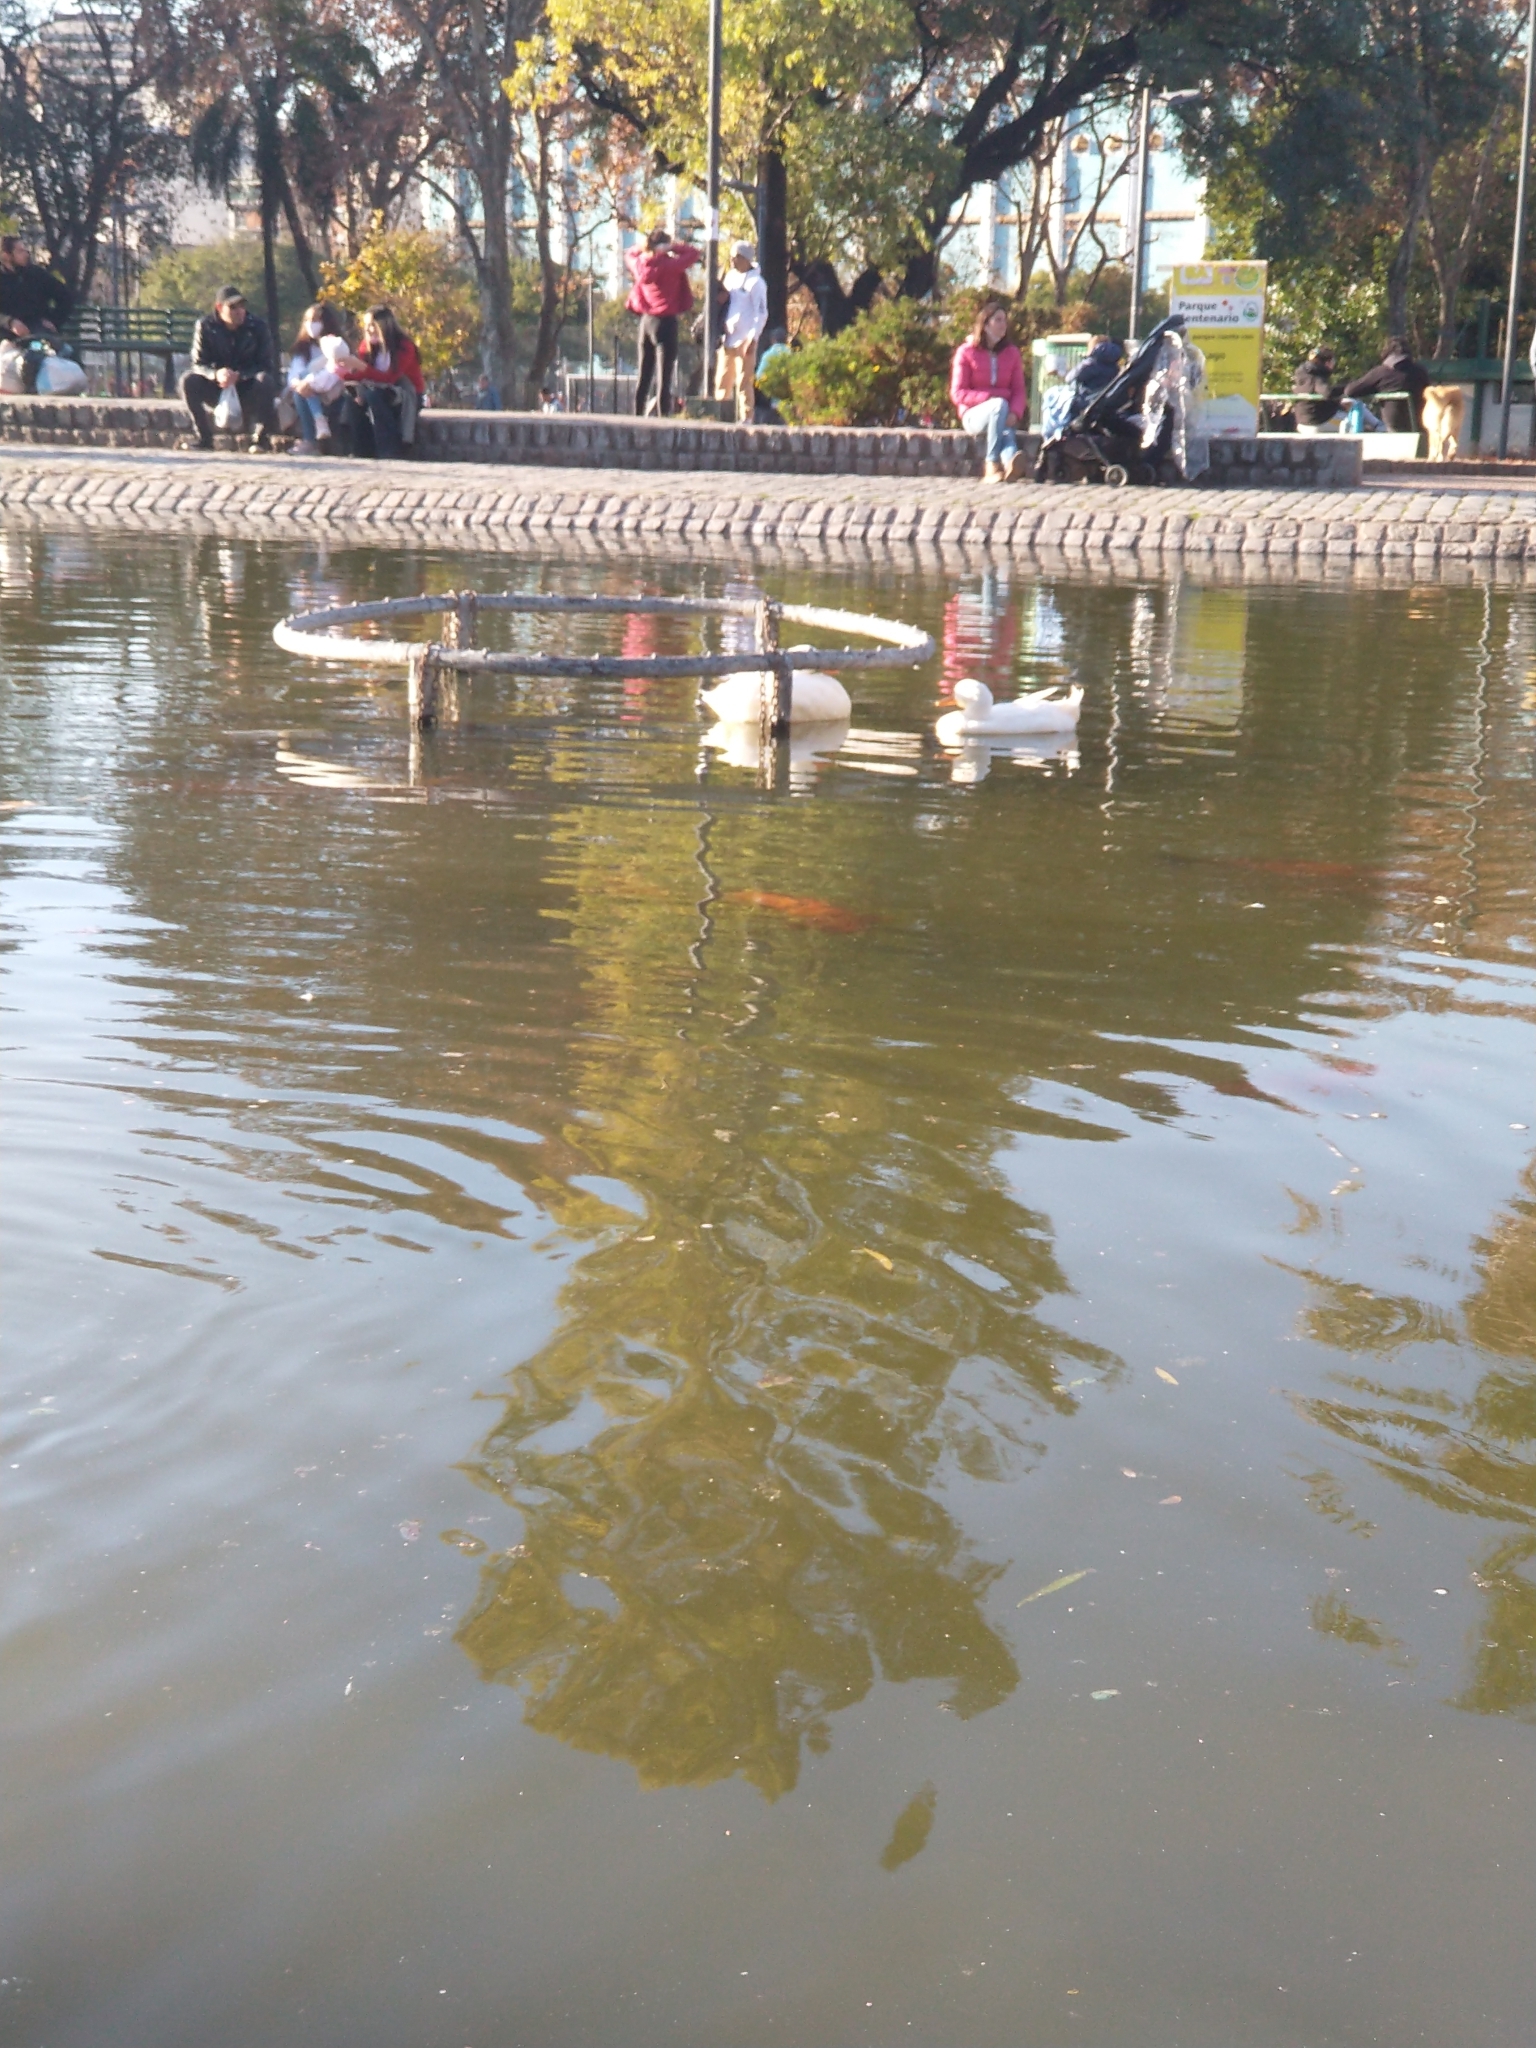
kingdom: Animalia
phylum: Chordata
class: Aves
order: Anseriformes
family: Anatidae
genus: Anser
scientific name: Anser anser
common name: Greylag goose
